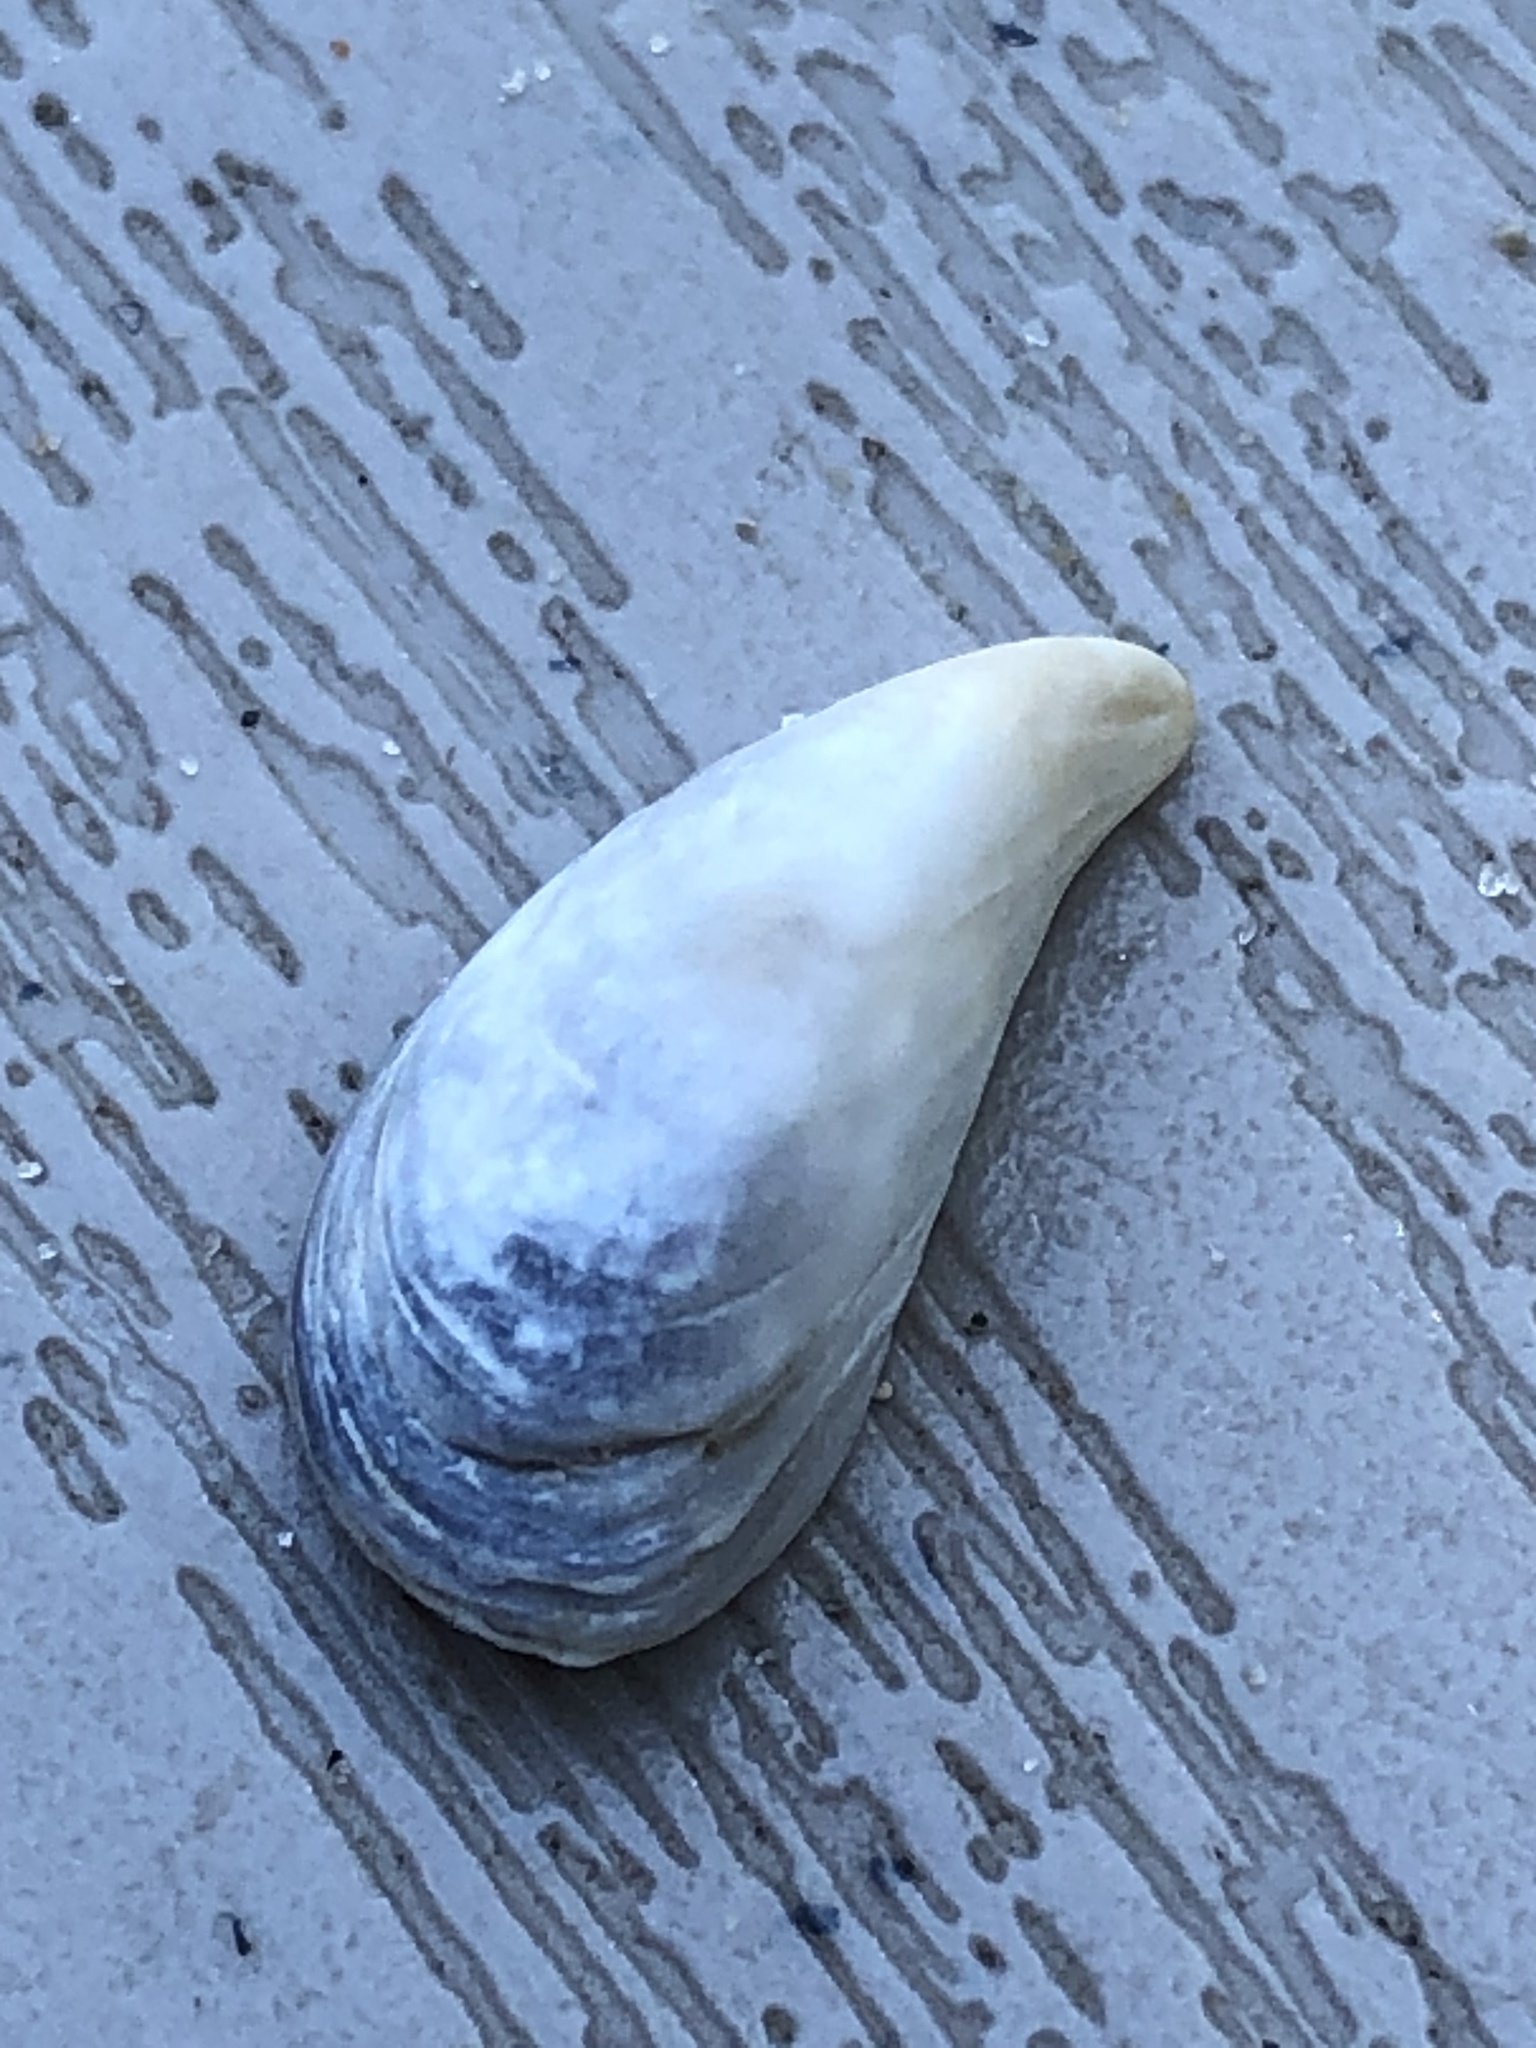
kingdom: Animalia
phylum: Mollusca
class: Bivalvia
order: Myida
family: Dreissenidae
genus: Dreissena
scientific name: Dreissena bugensis
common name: Quagga mussel
